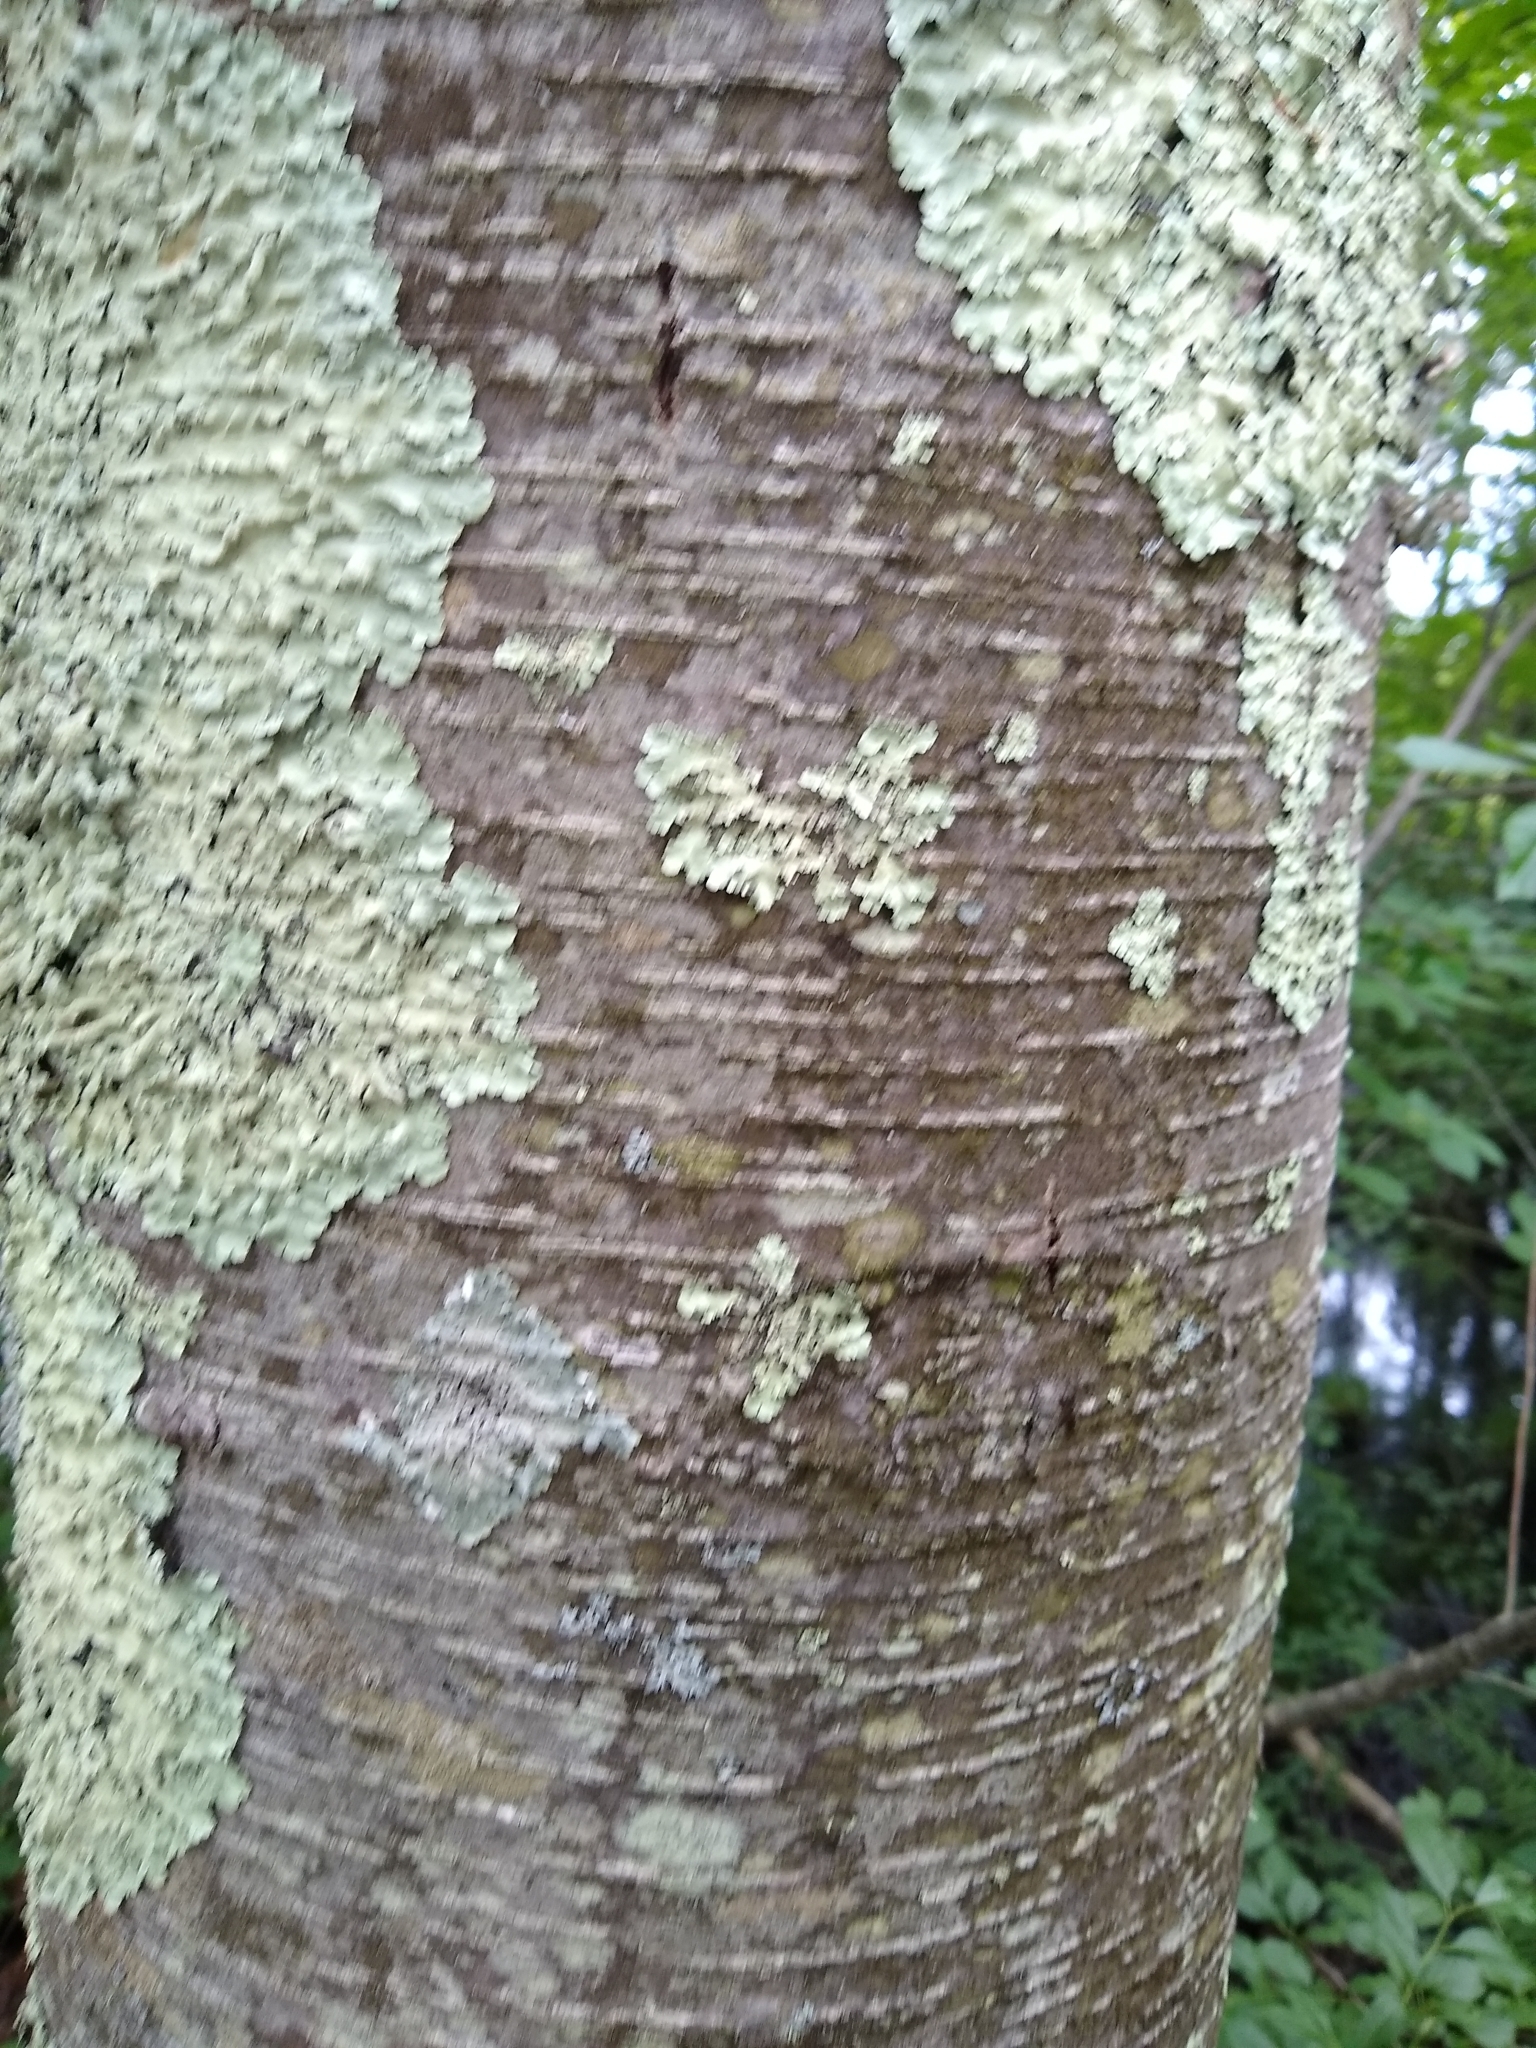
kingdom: Plantae
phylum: Tracheophyta
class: Magnoliopsida
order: Fagales
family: Betulaceae
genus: Betula
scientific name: Betula lenta
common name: Black birch
